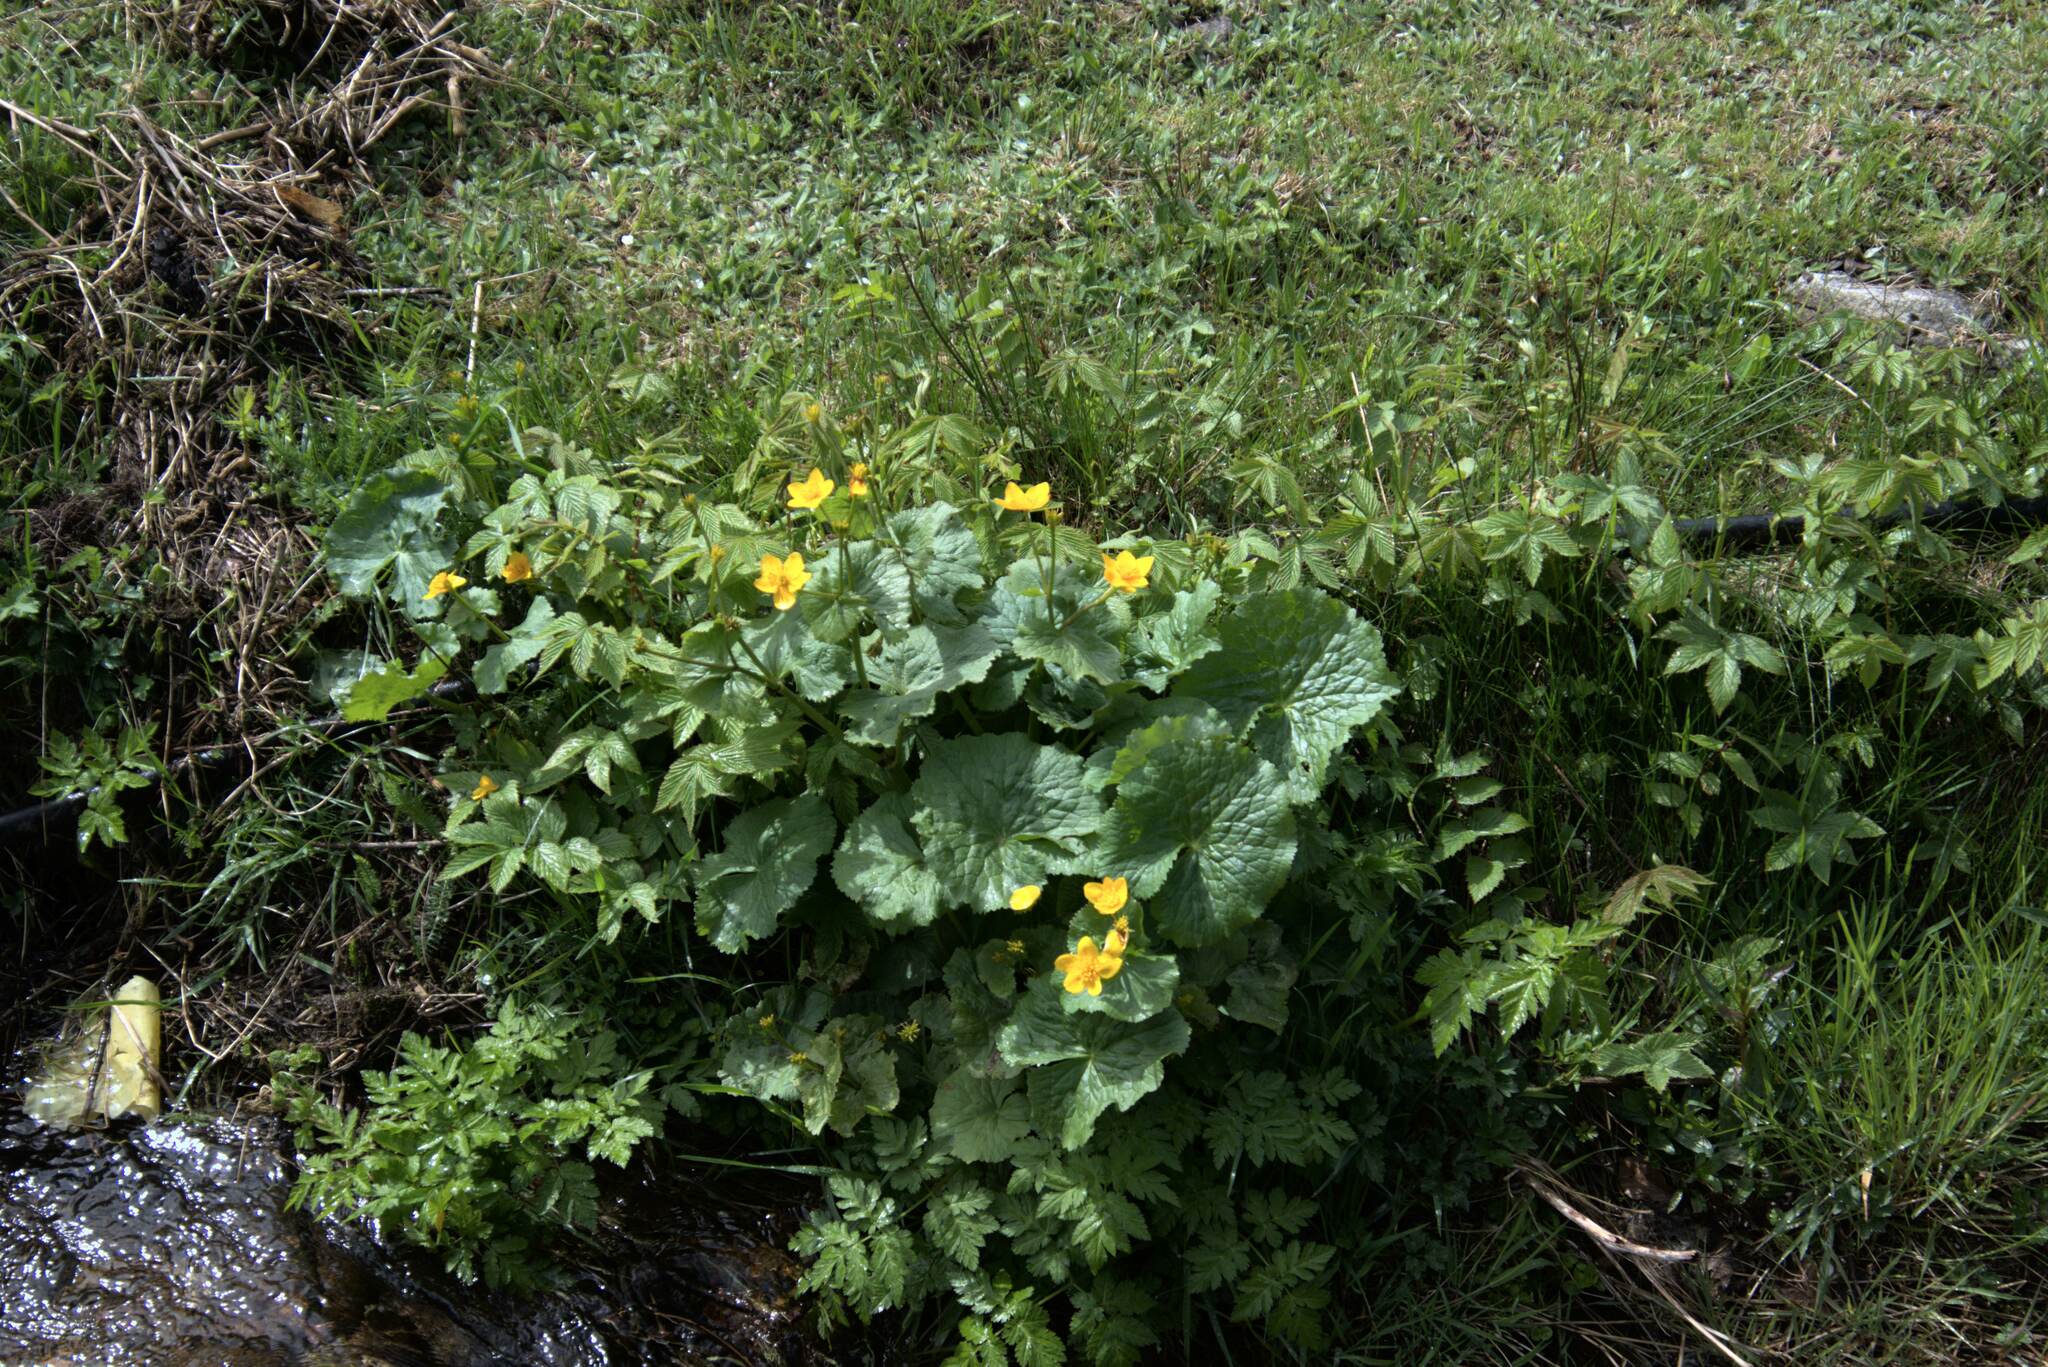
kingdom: Plantae
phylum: Tracheophyta
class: Magnoliopsida
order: Ranunculales
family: Ranunculaceae
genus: Caltha
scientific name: Caltha palustris
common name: Marsh marigold
